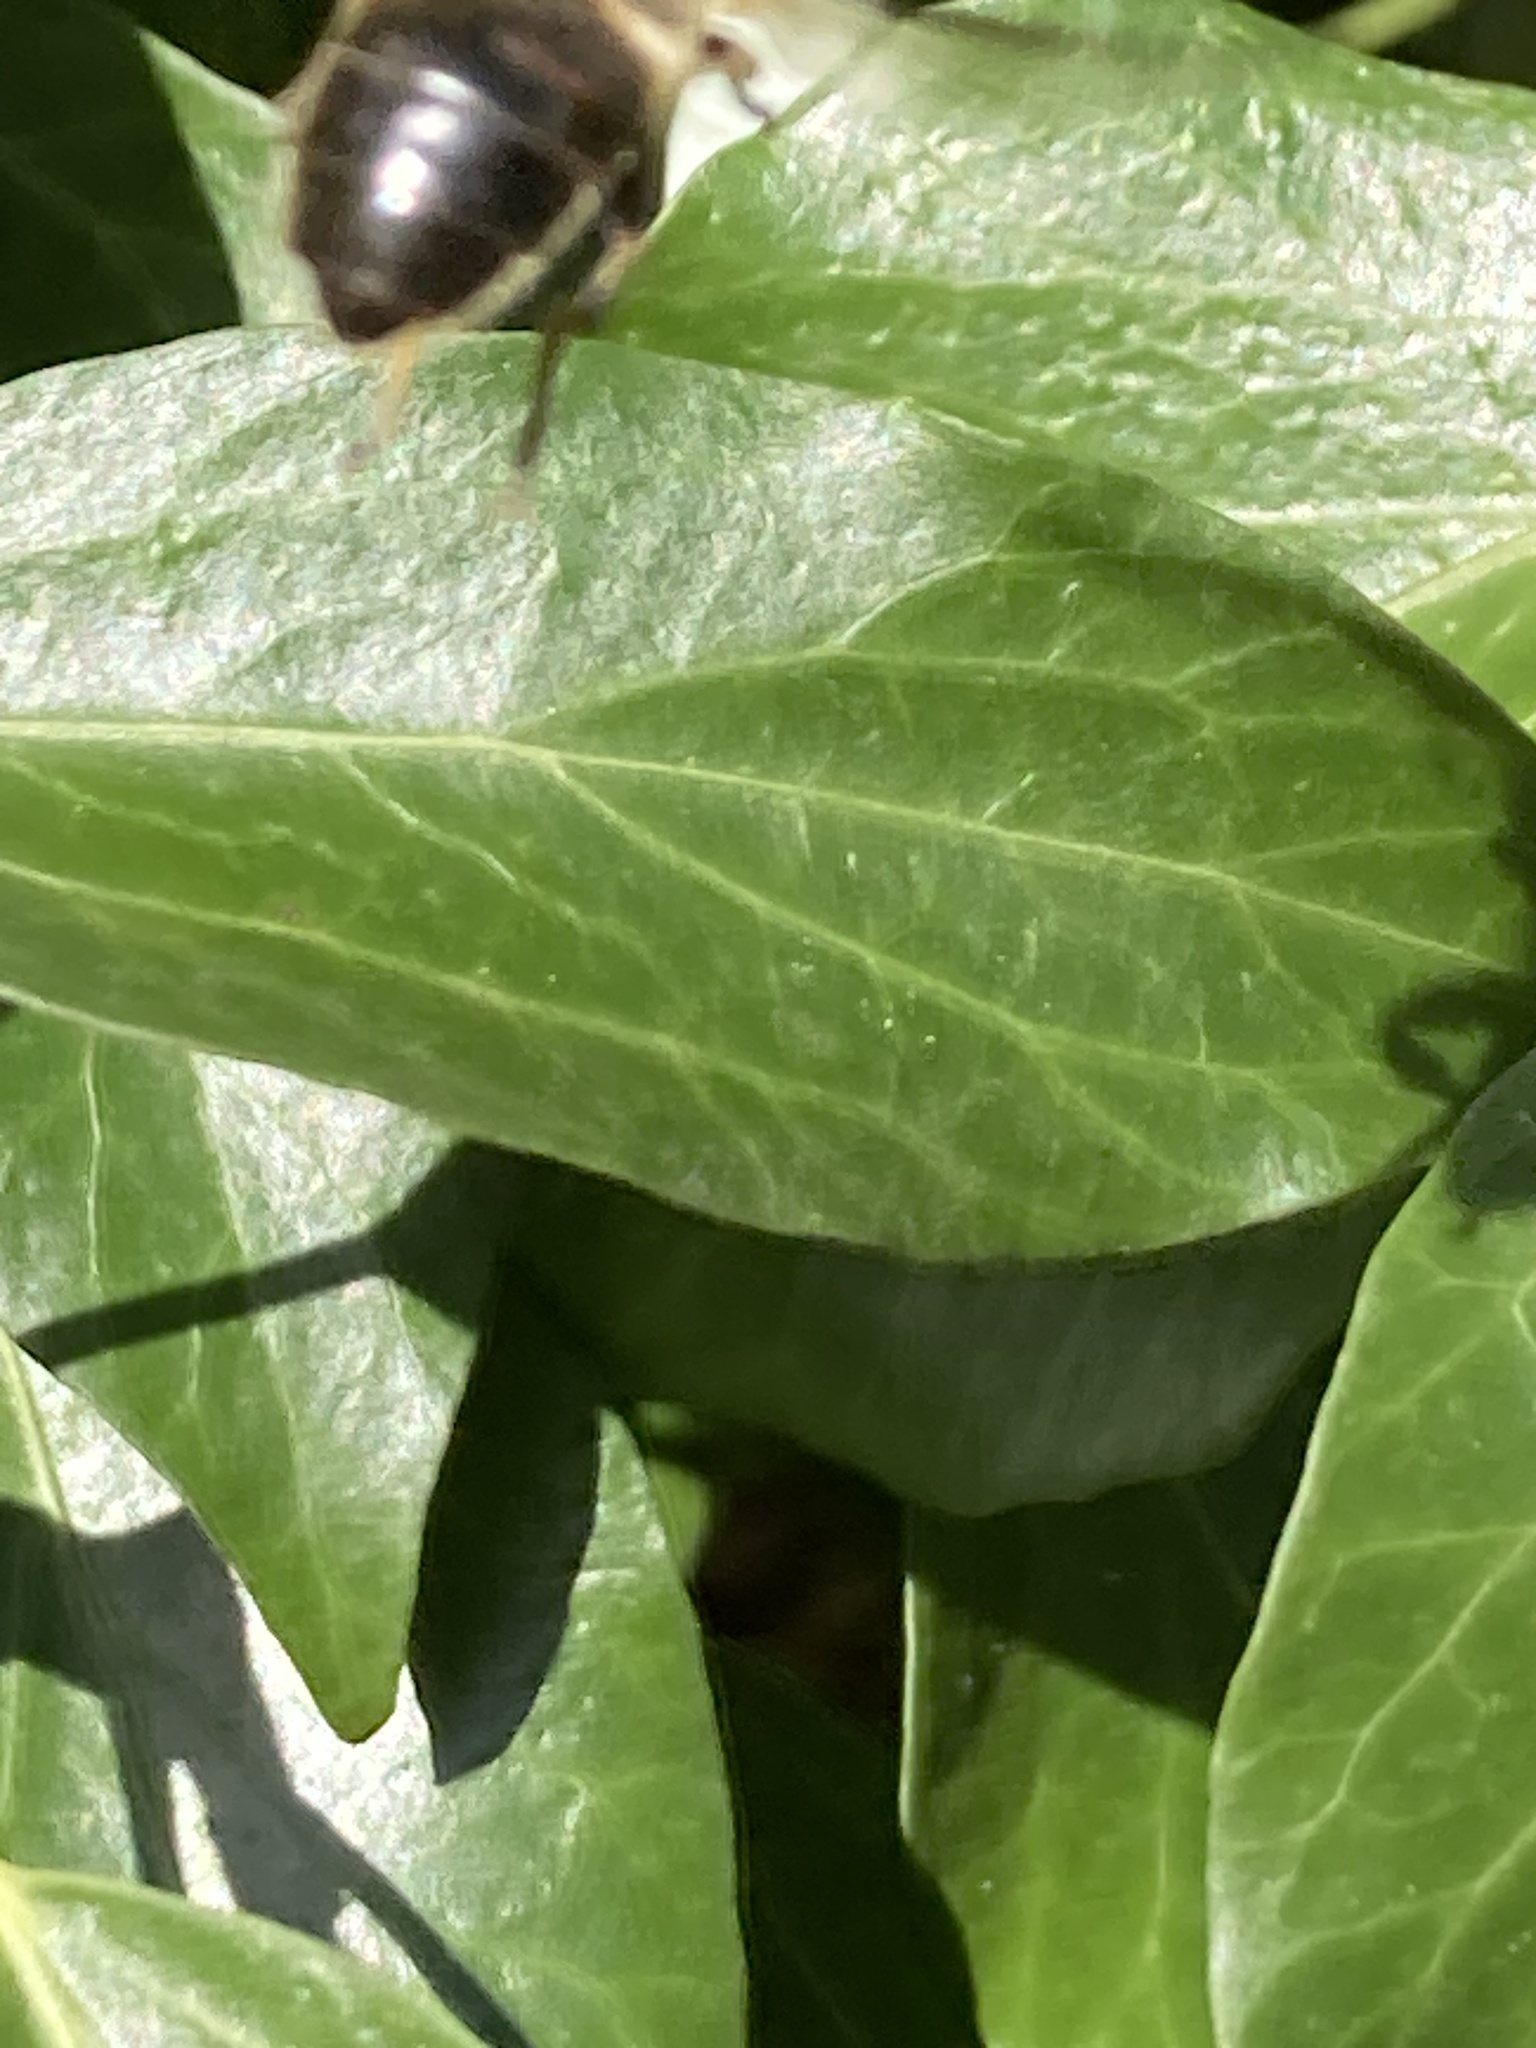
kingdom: Animalia
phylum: Arthropoda
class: Insecta
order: Diptera
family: Syrphidae
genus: Eristalis
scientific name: Eristalis tenax
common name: Drone fly
